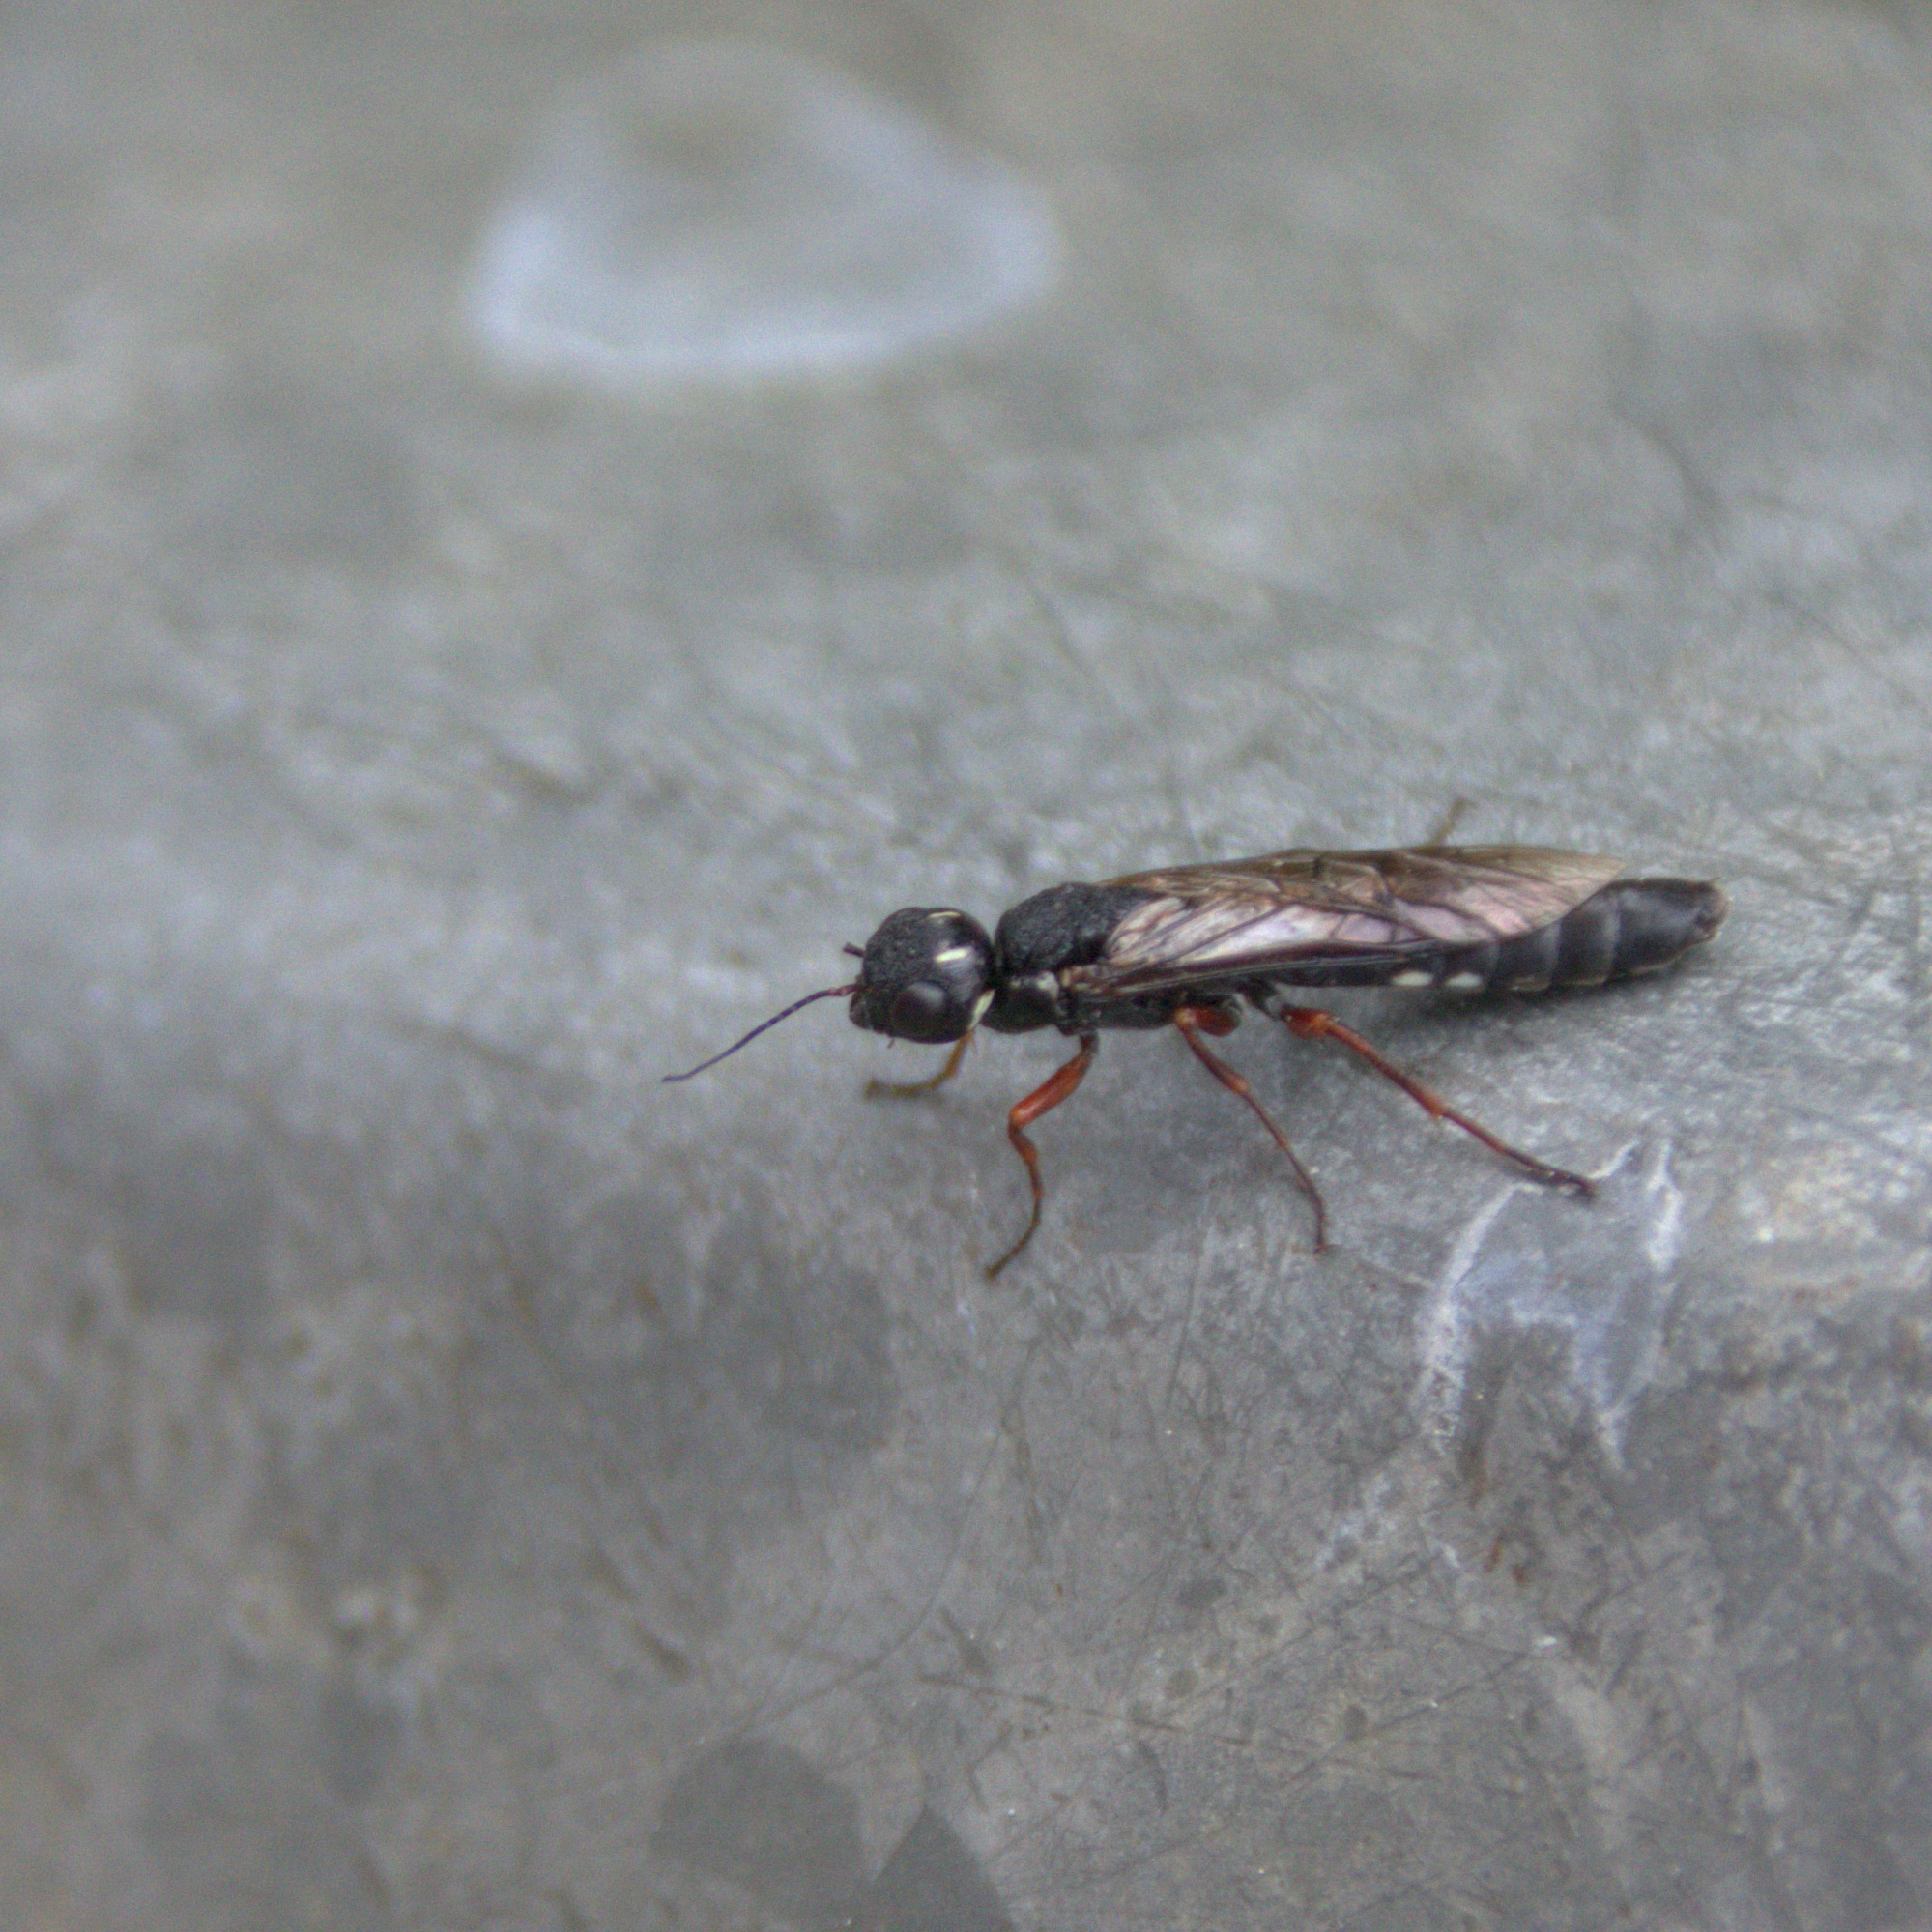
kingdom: Animalia
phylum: Arthropoda
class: Insecta
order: Hymenoptera
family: Xiphydriidae
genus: Xiphydria
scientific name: Xiphydria camelus
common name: Alder wood-wasp
